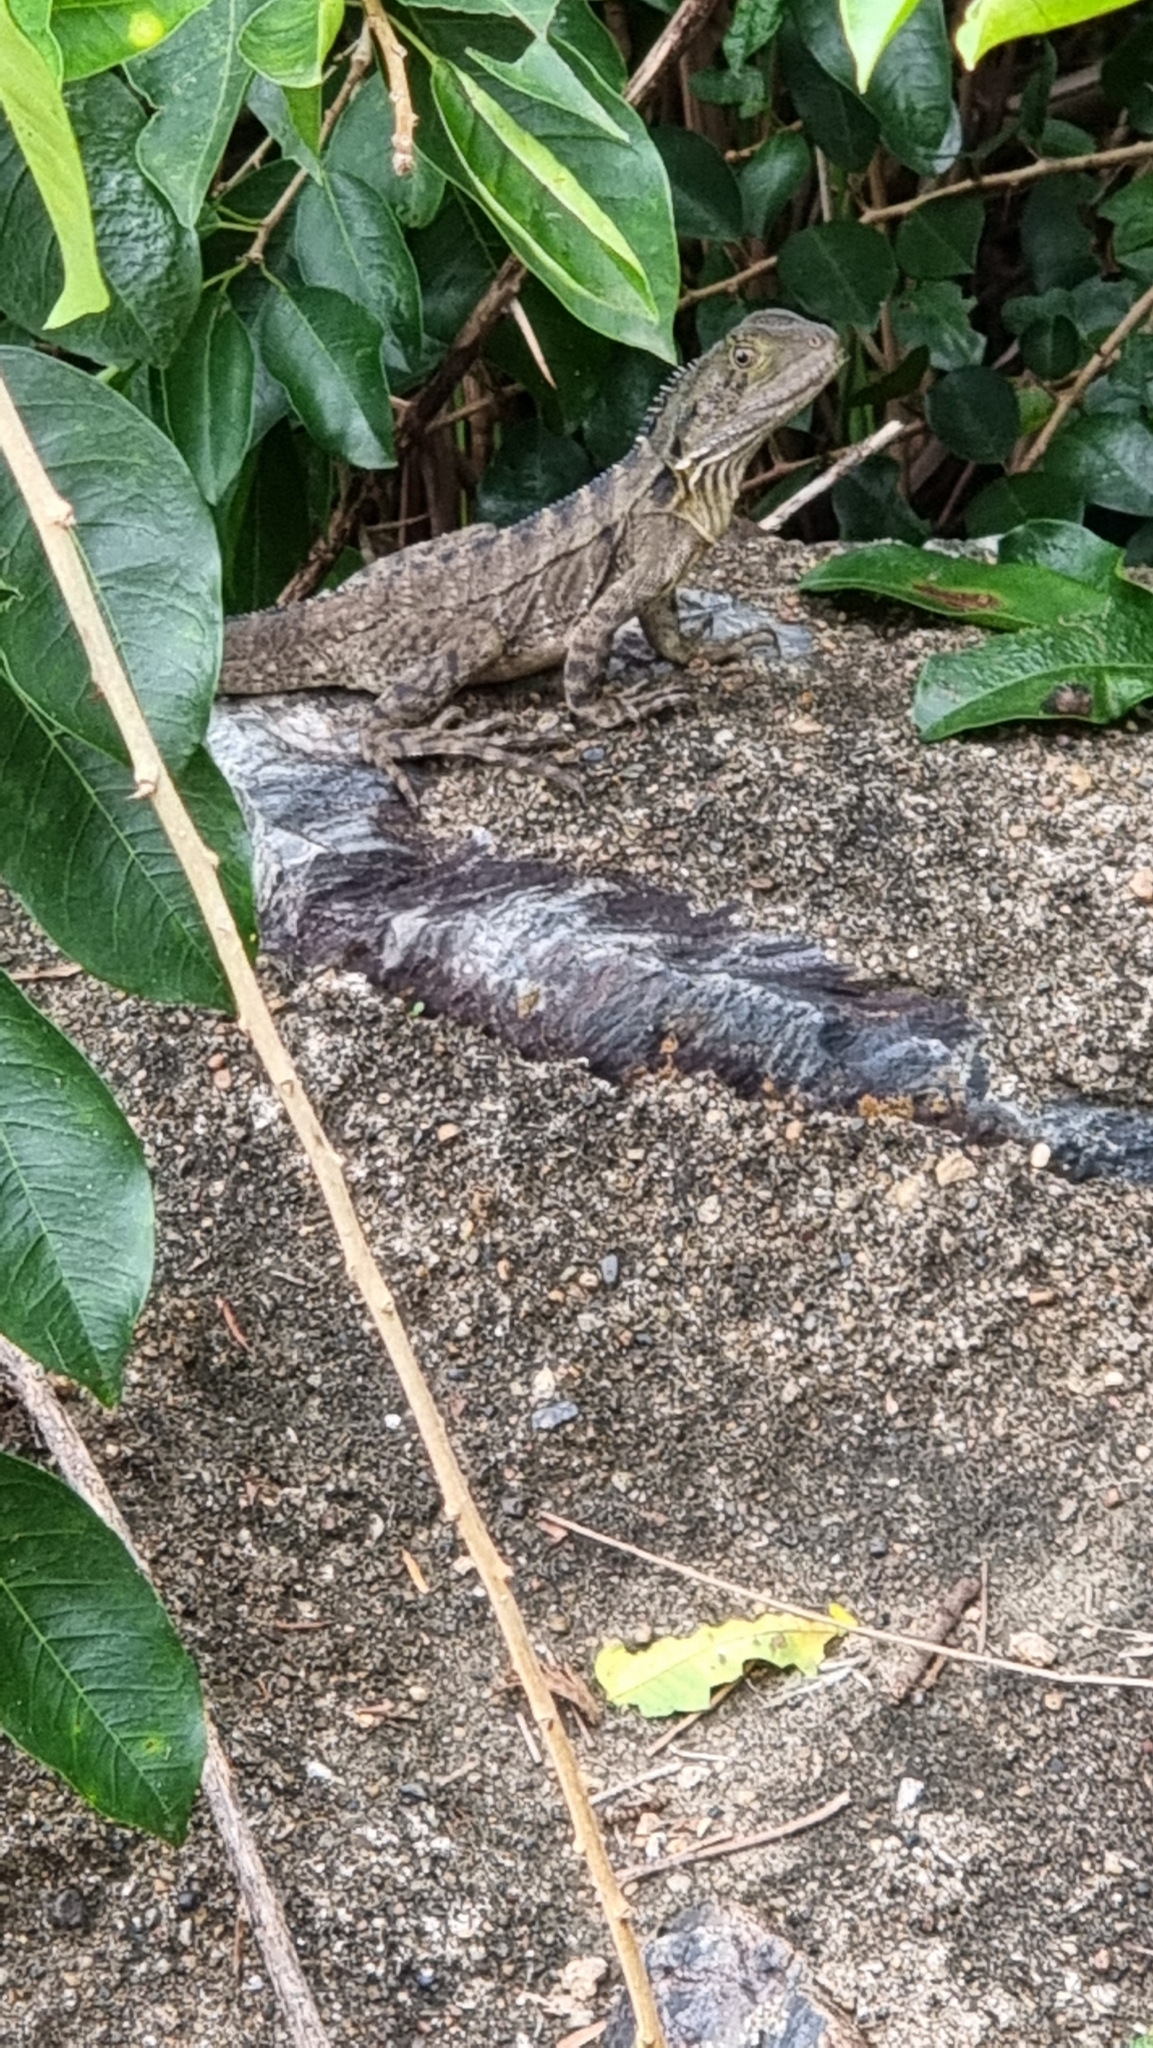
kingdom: Animalia
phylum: Chordata
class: Squamata
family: Agamidae
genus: Intellagama
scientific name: Intellagama lesueurii
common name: Eastern water dragon
